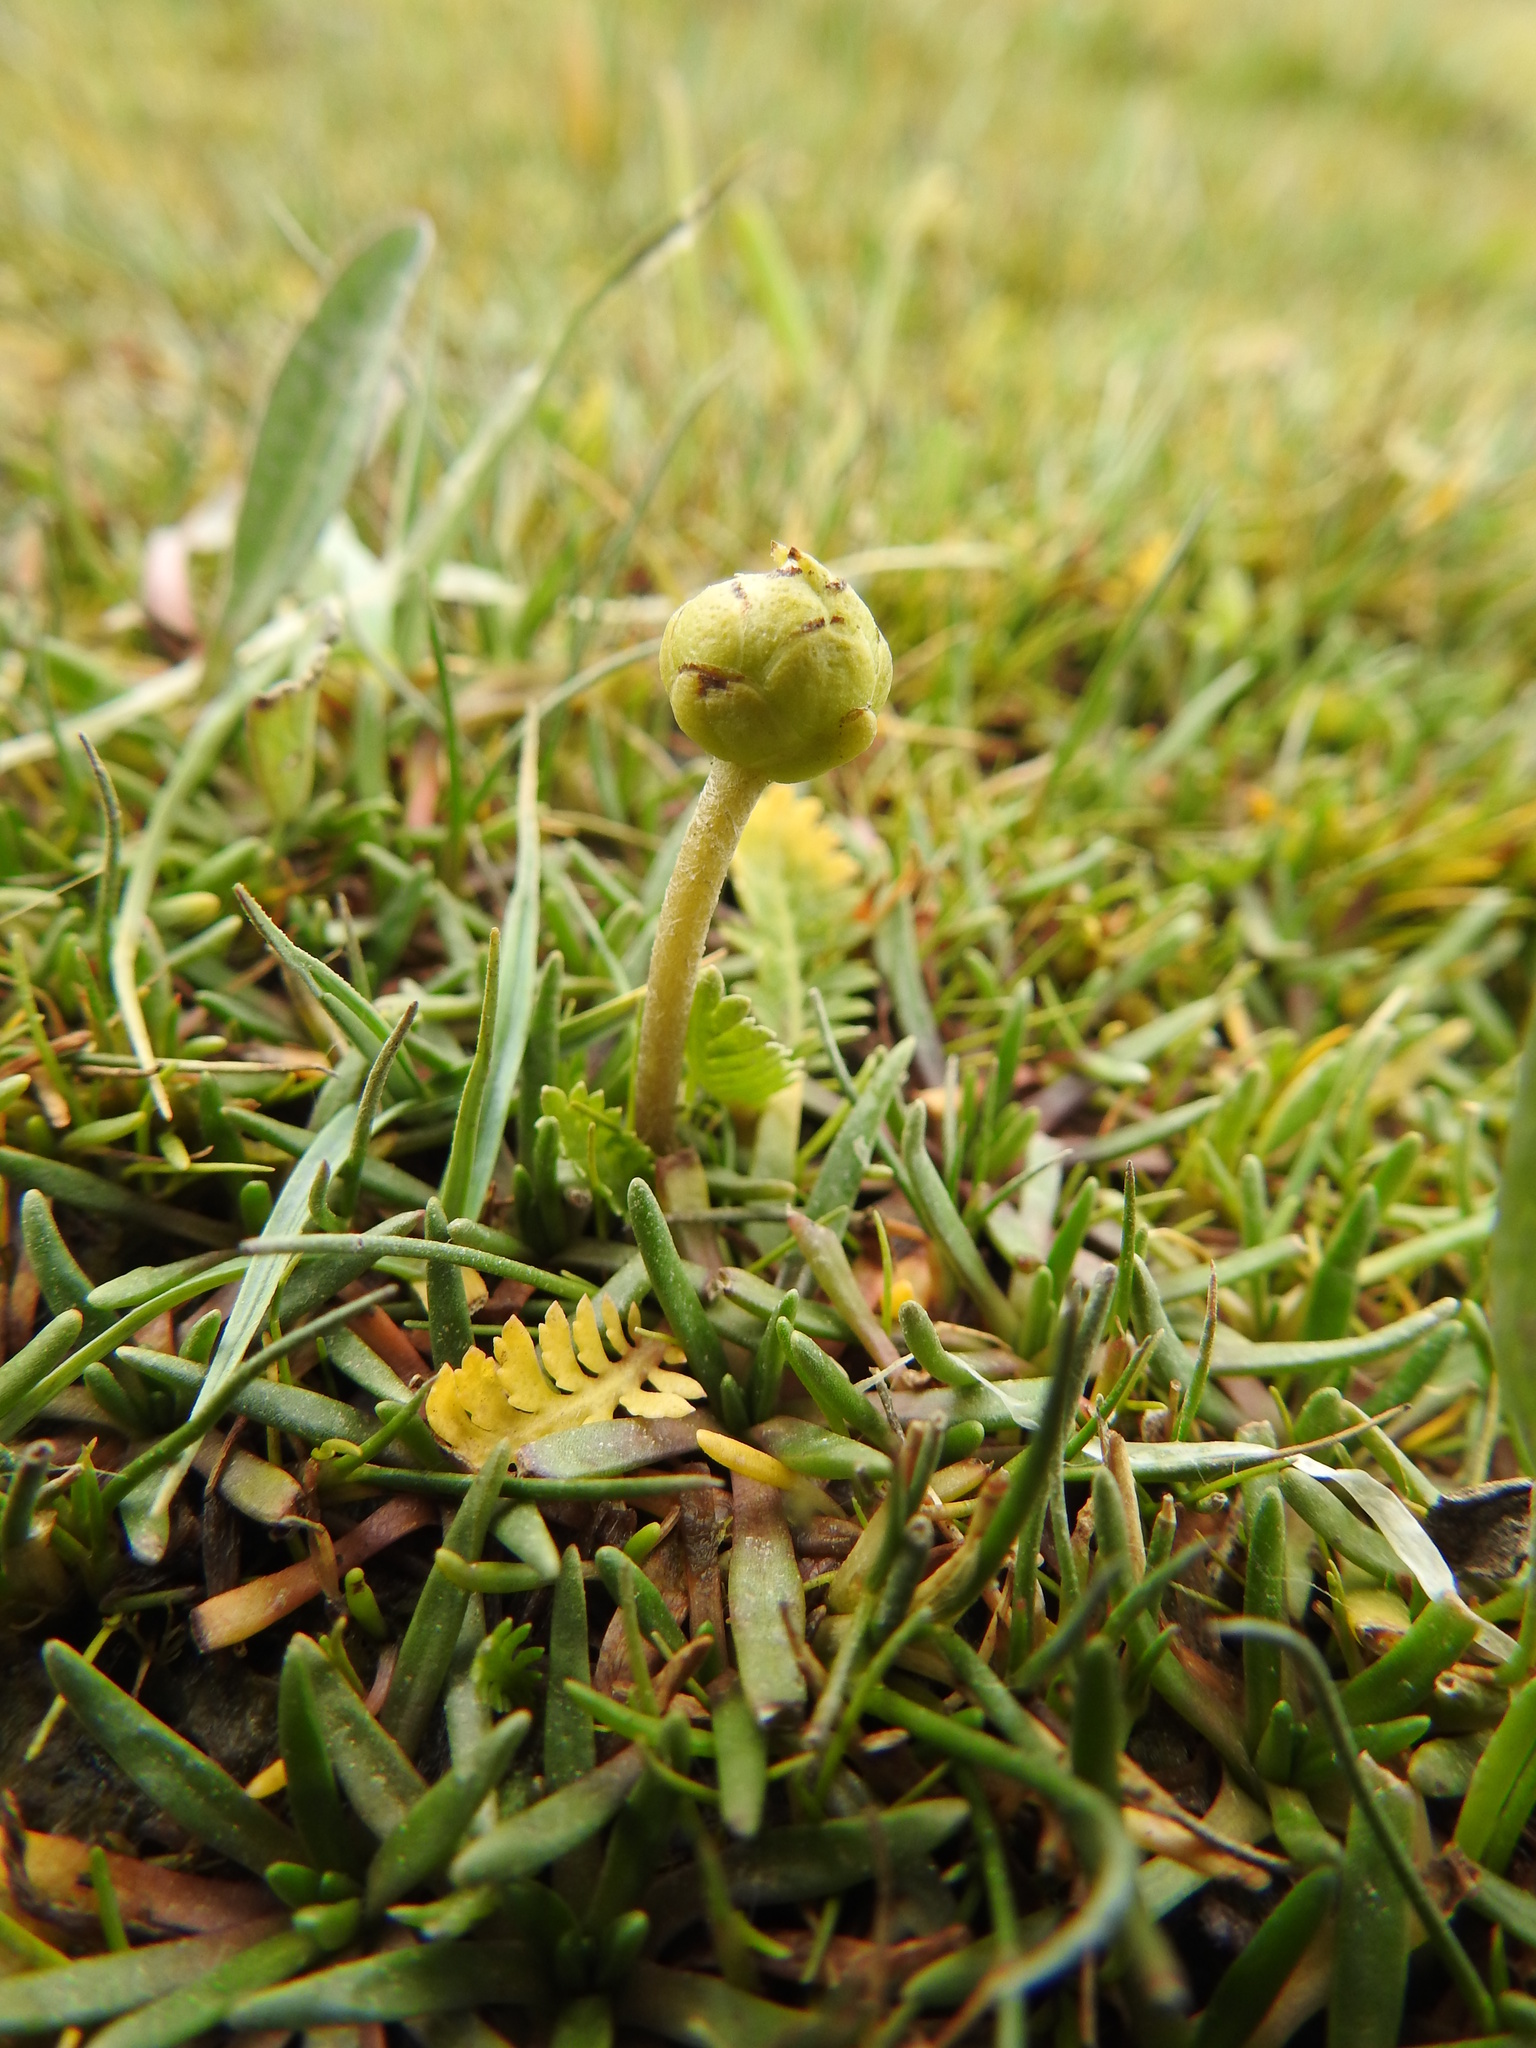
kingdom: Plantae
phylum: Tracheophyta
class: Magnoliopsida
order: Asterales
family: Asteraceae
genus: Leptinella
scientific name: Leptinella scariosa
